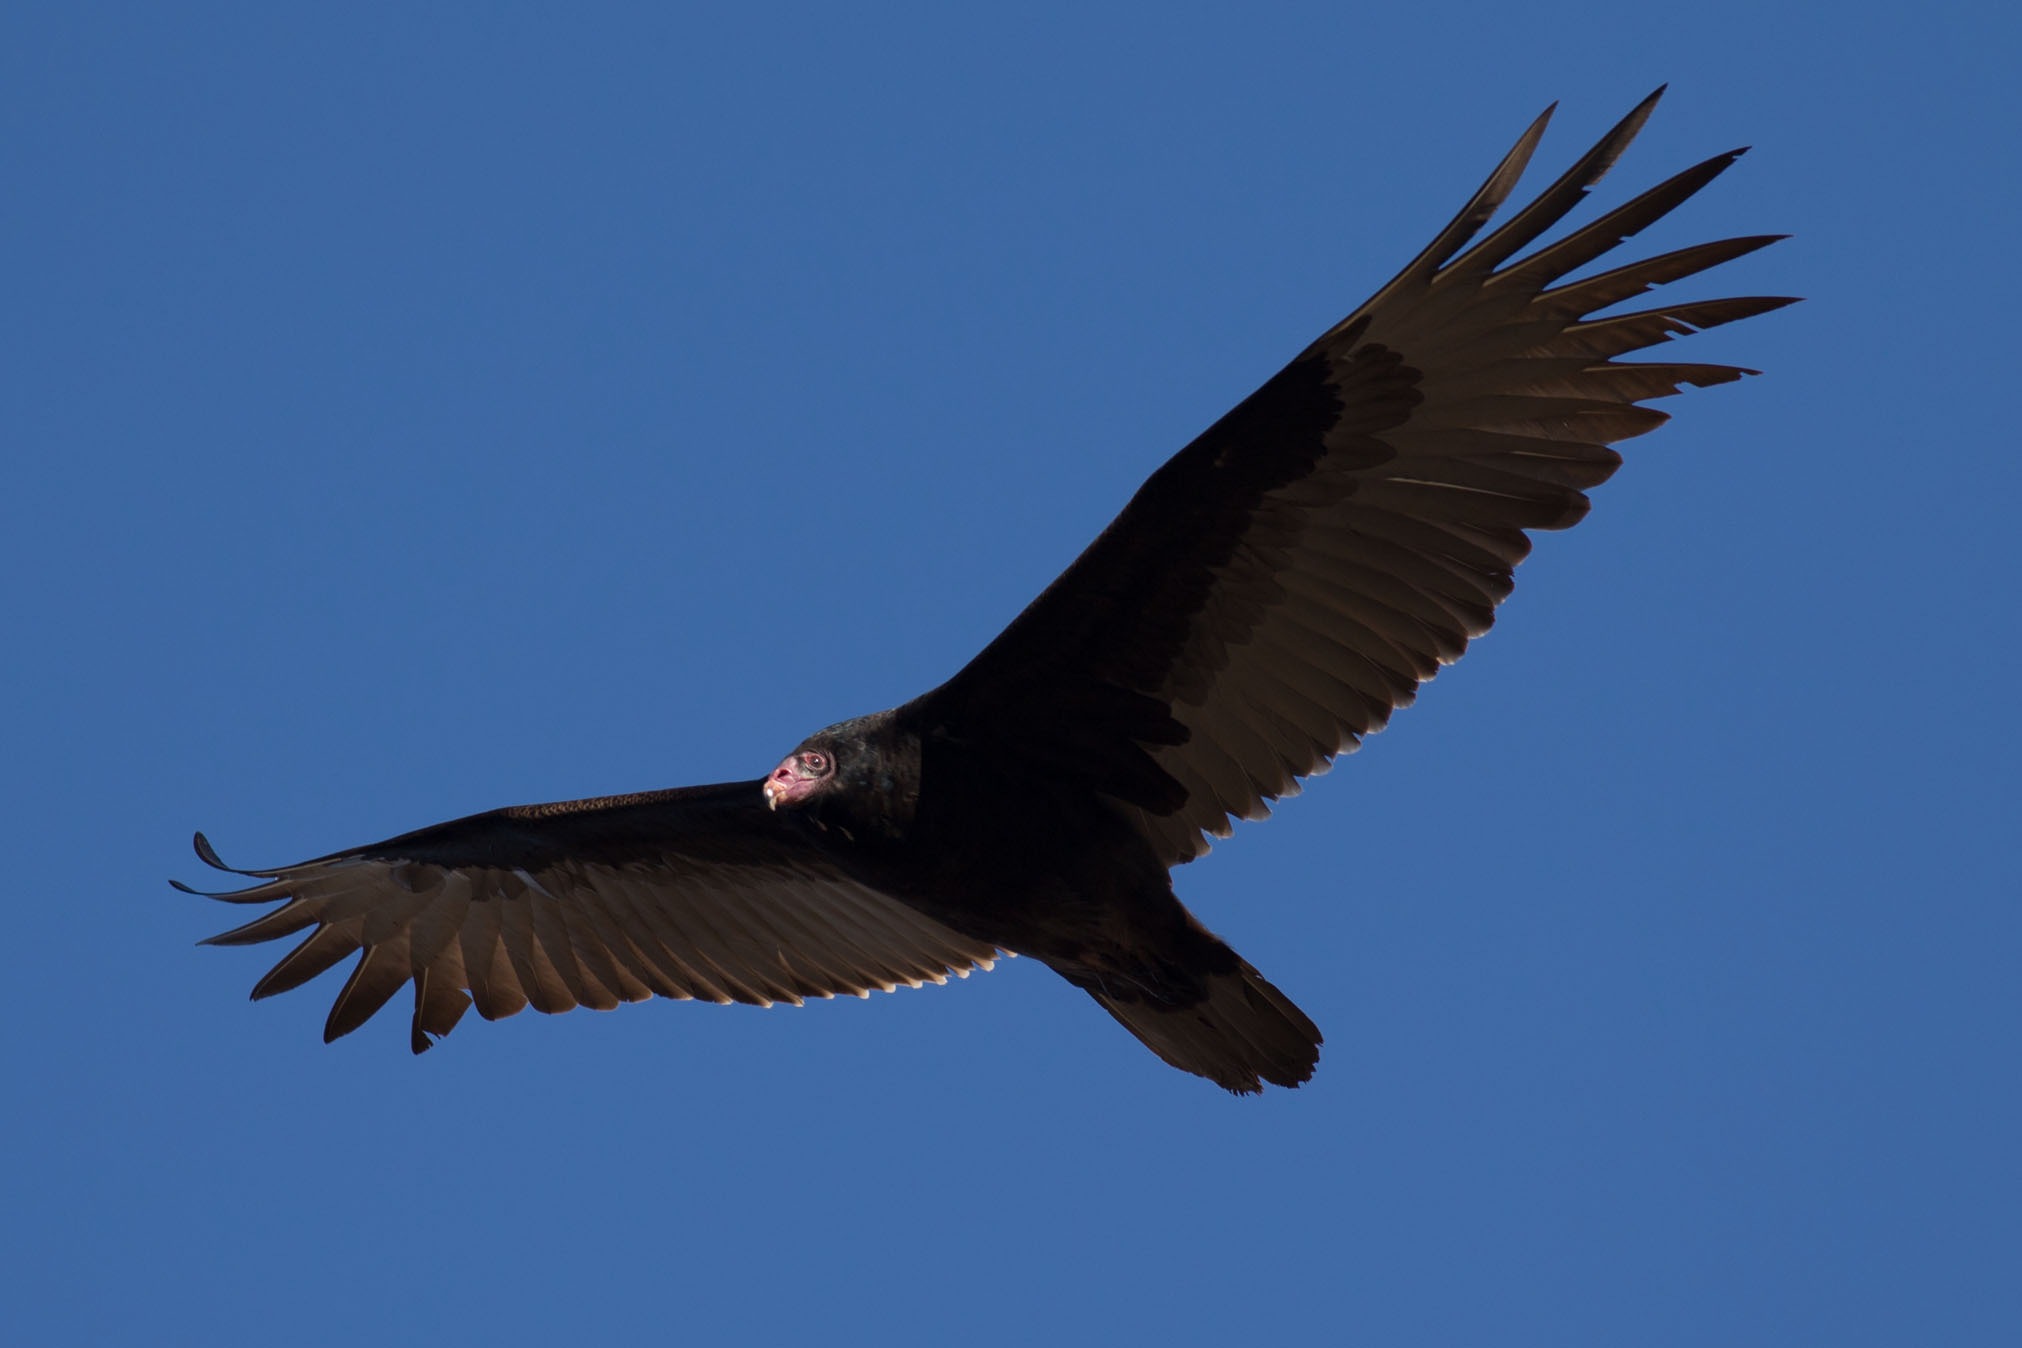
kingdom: Animalia
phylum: Chordata
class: Aves
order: Accipitriformes
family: Cathartidae
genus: Cathartes
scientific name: Cathartes aura
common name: Turkey vulture
